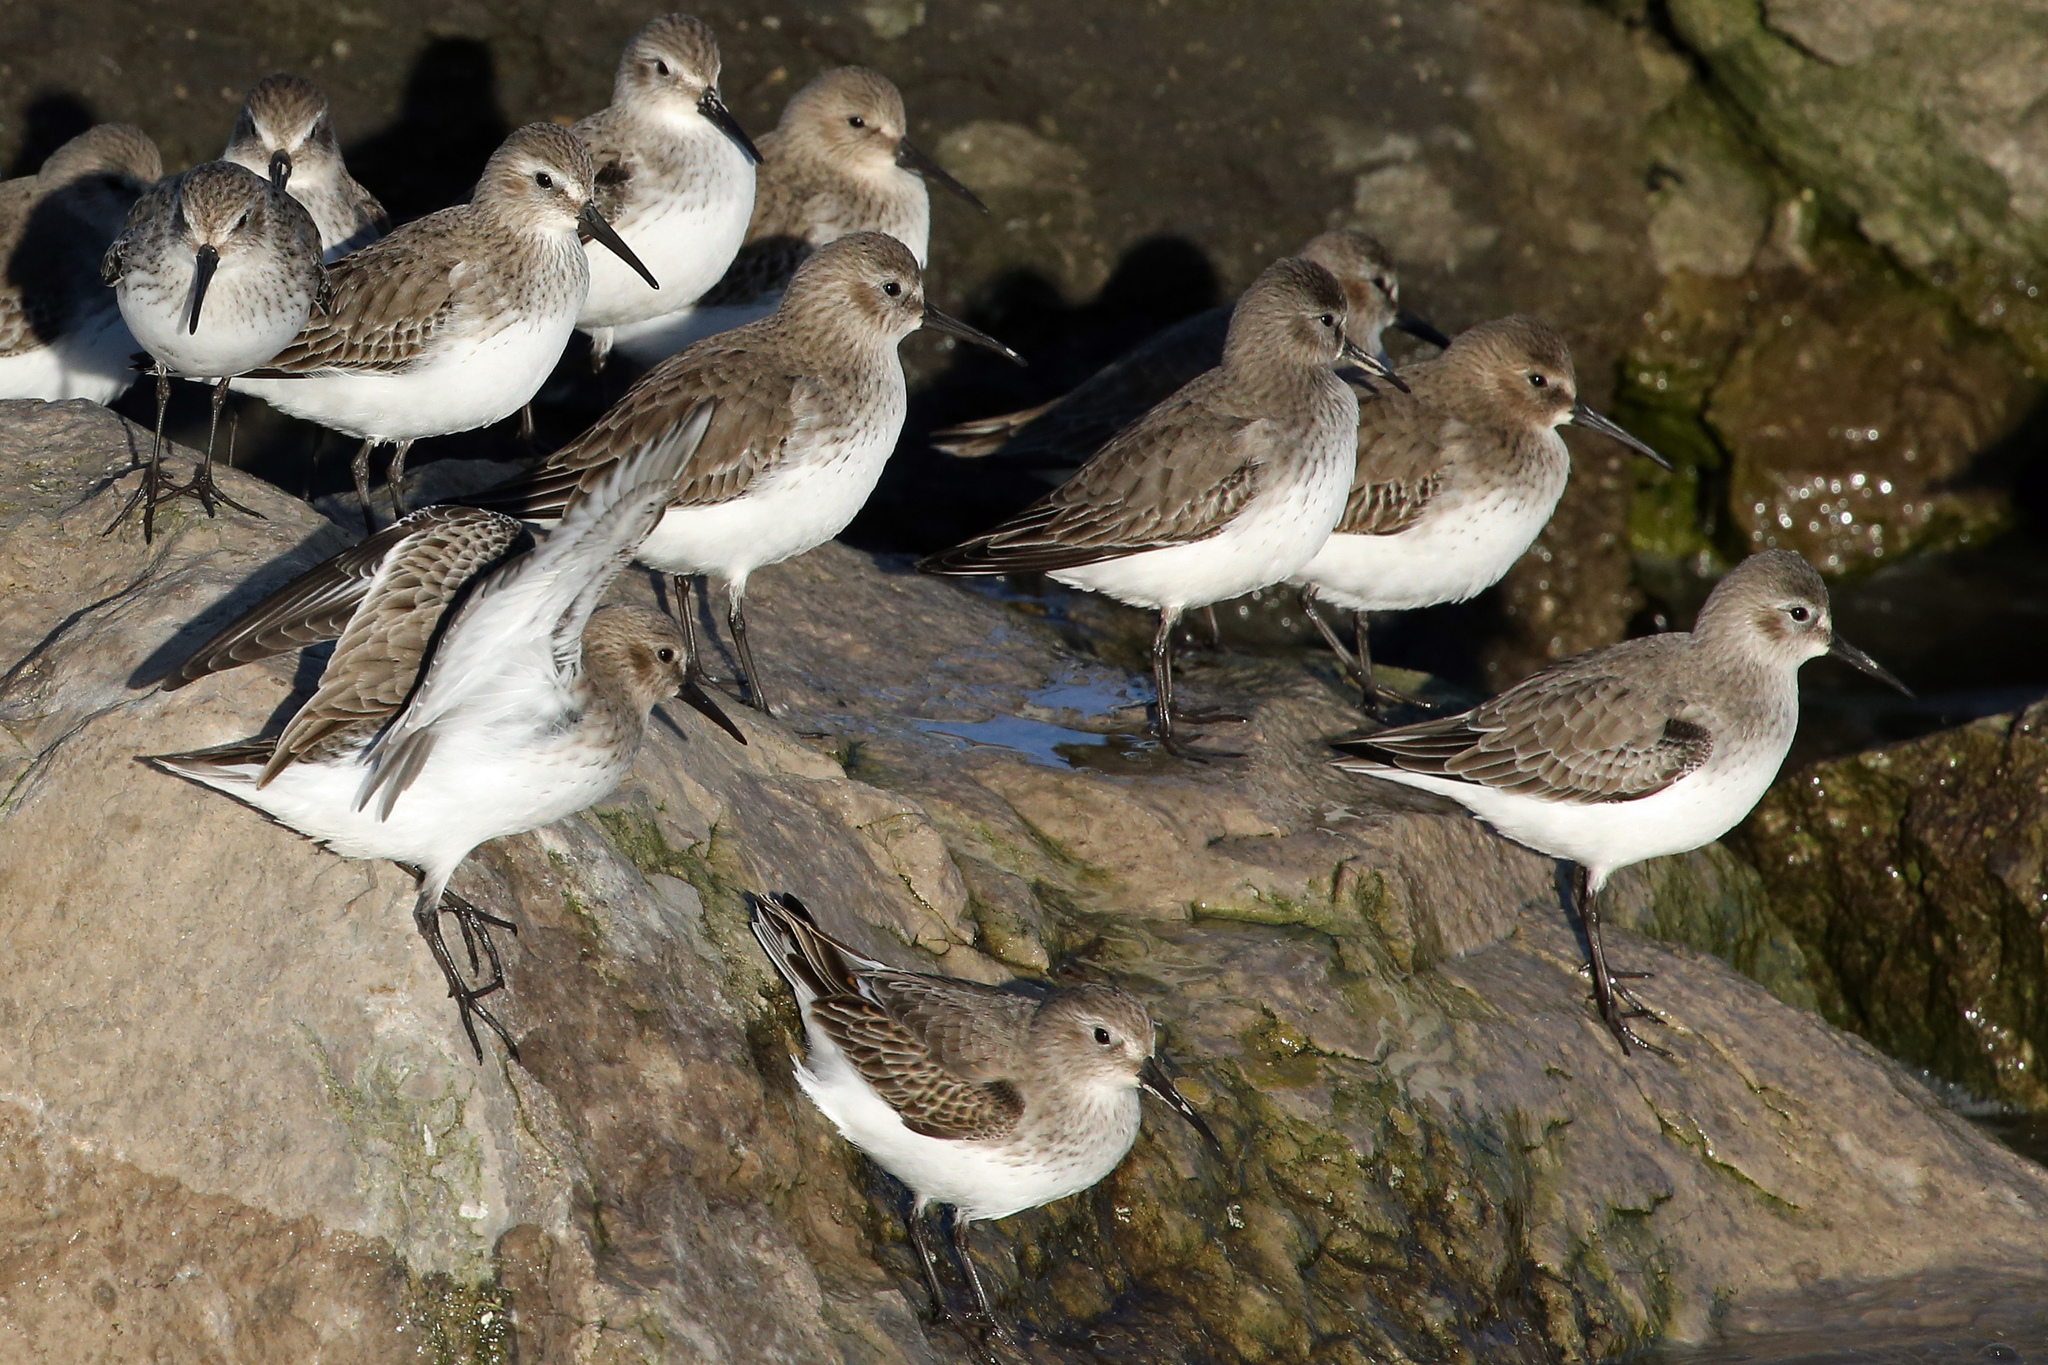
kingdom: Animalia
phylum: Chordata
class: Aves
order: Charadriiformes
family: Scolopacidae
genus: Calidris
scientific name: Calidris alpina
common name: Dunlin
